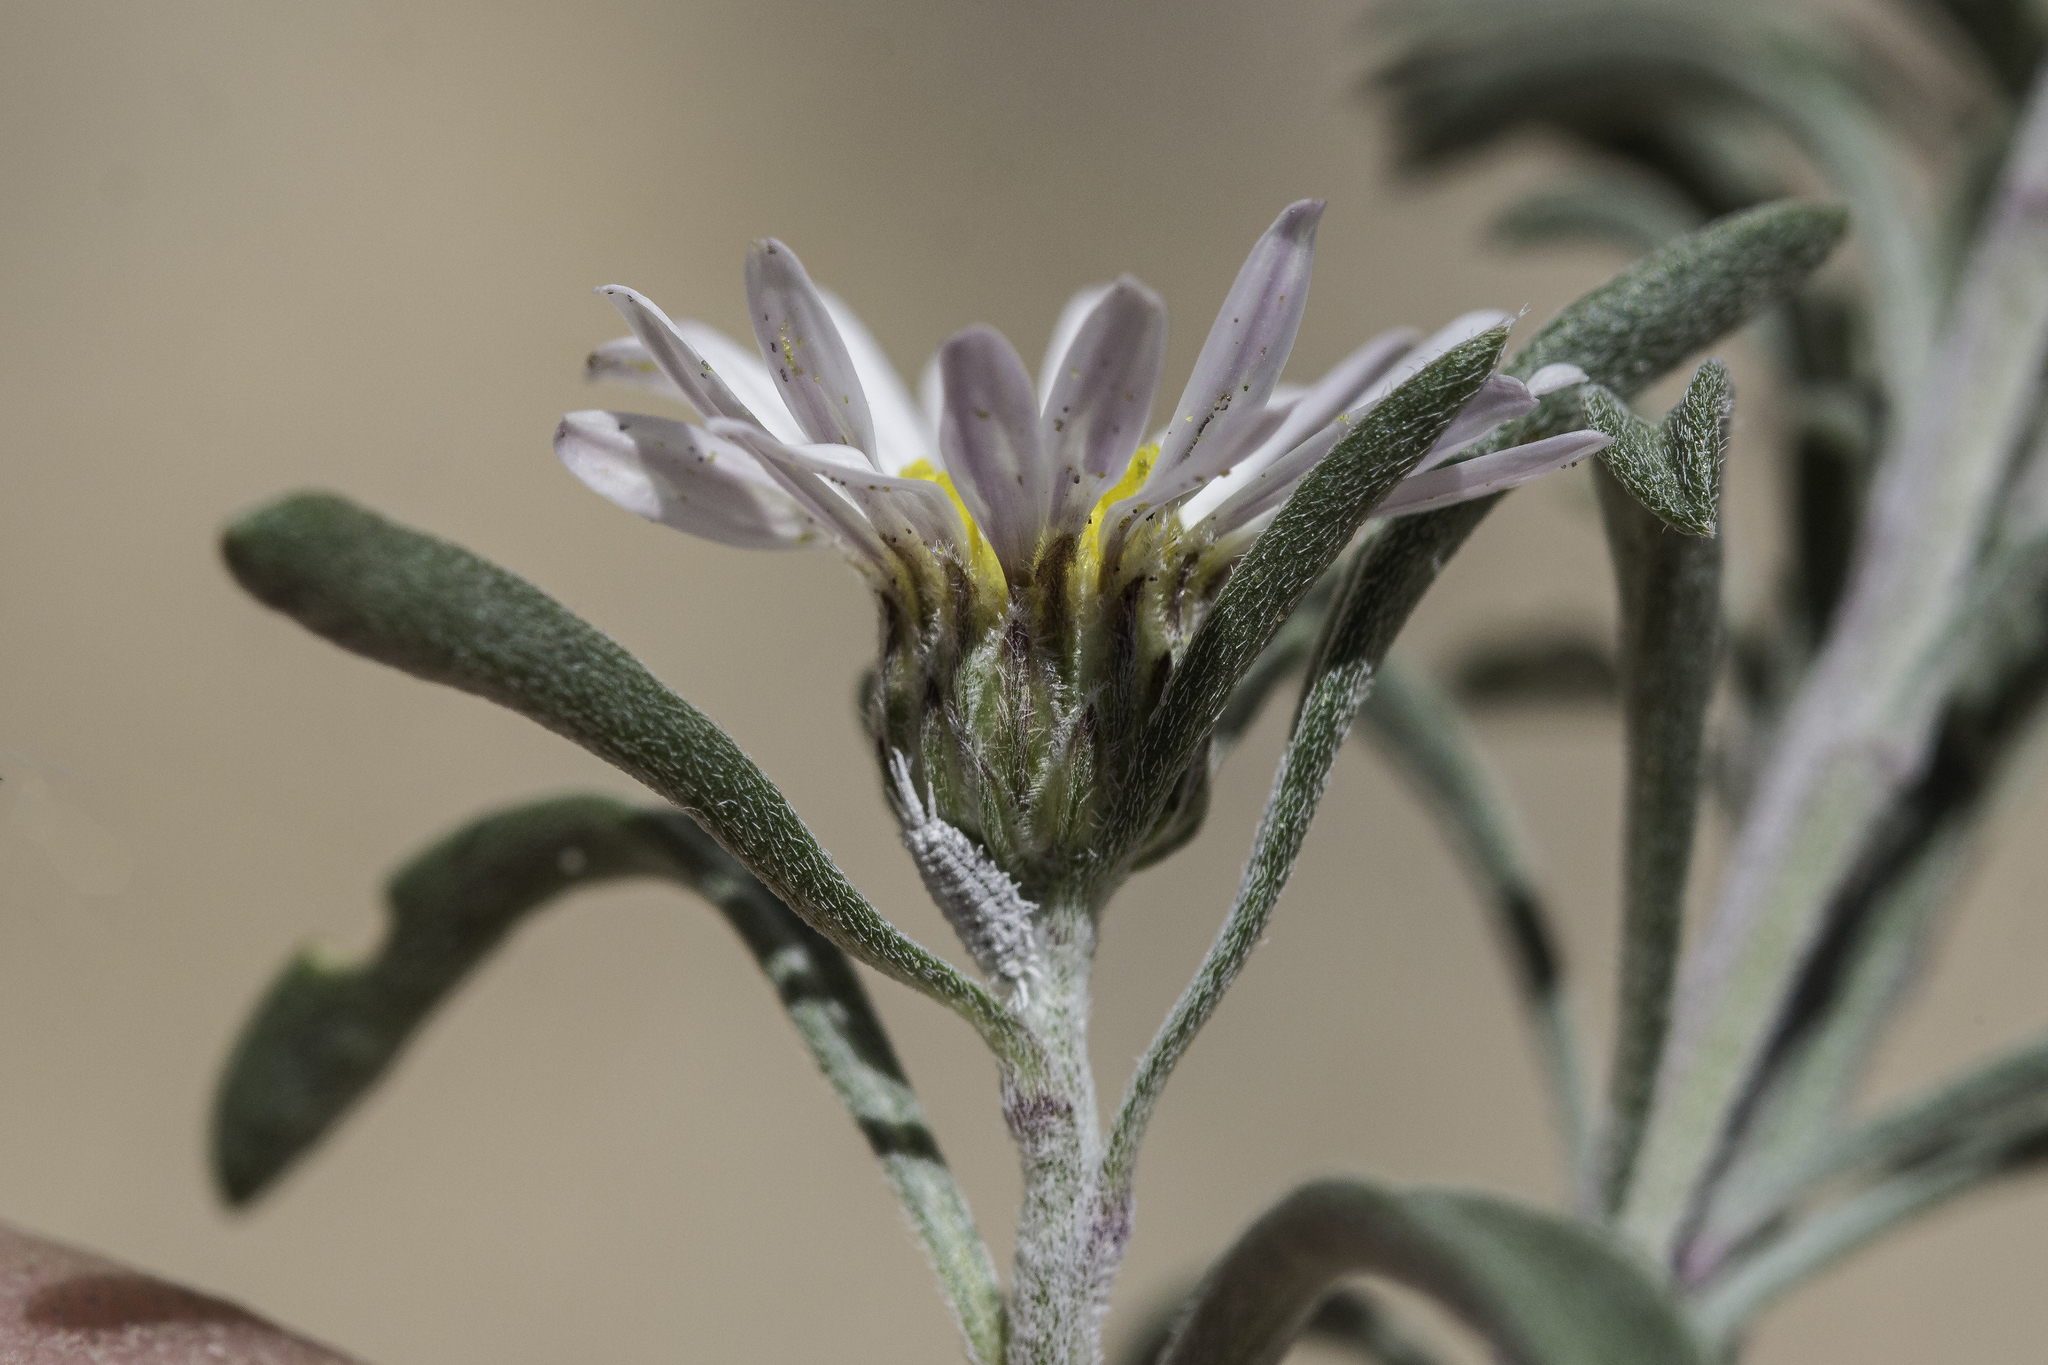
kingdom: Plantae
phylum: Tracheophyta
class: Magnoliopsida
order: Asterales
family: Asteraceae
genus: Townsendia
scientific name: Townsendia fendleri
